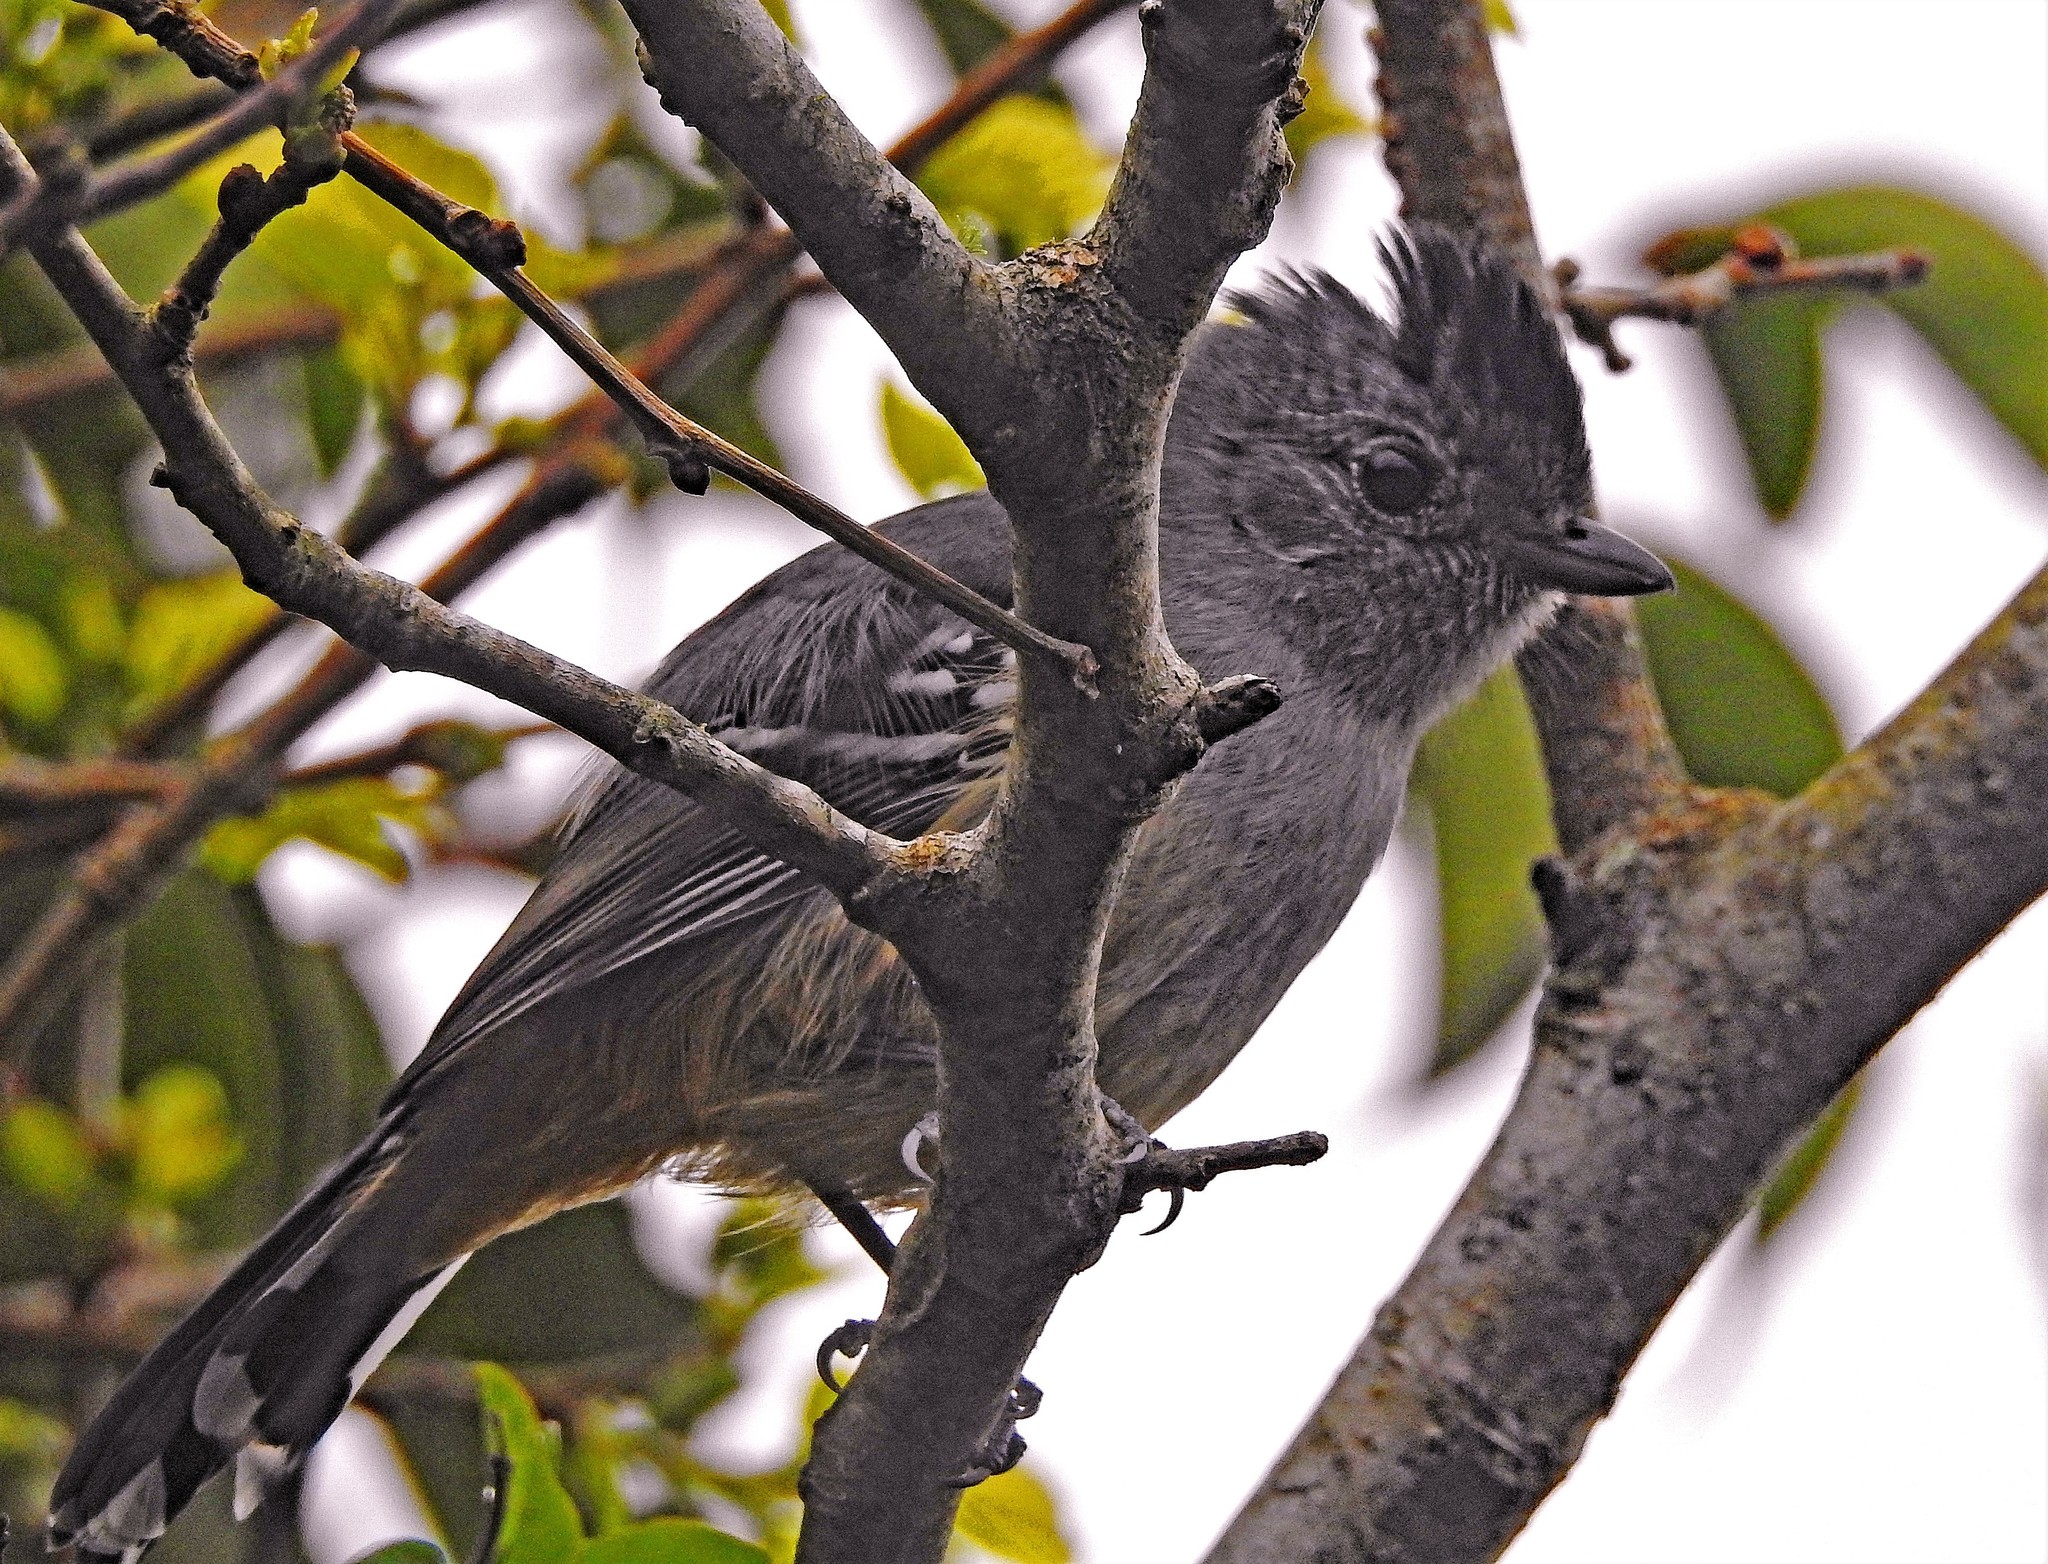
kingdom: Animalia
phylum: Chordata
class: Aves
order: Passeriformes
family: Thamnophilidae
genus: Thamnophilus
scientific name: Thamnophilus caerulescens
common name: Variable antshrike
